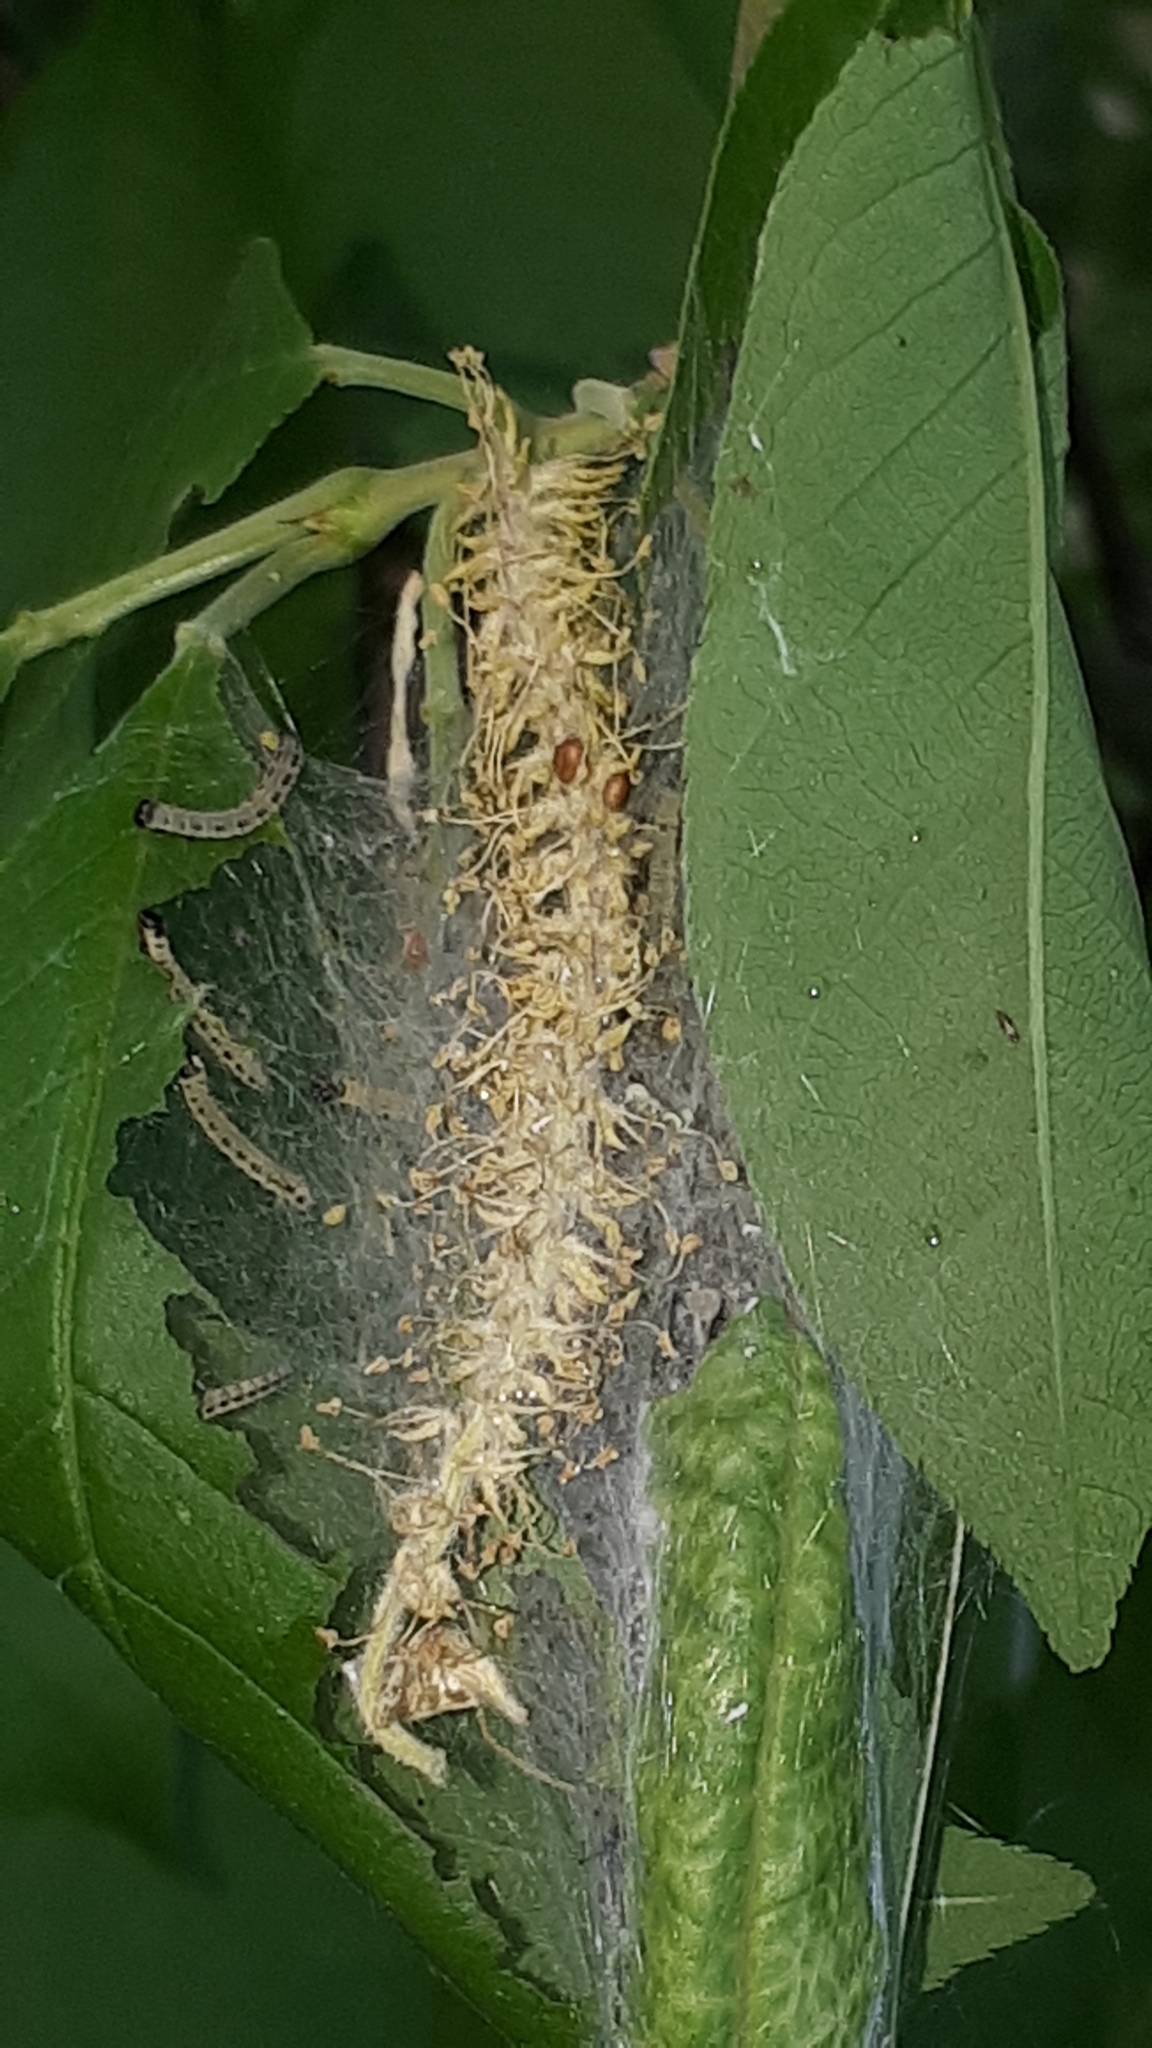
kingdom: Animalia
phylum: Arthropoda
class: Insecta
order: Lepidoptera
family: Yponomeutidae
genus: Yponomeuta
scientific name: Yponomeuta evonymella
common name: Bird-cherry ermine
